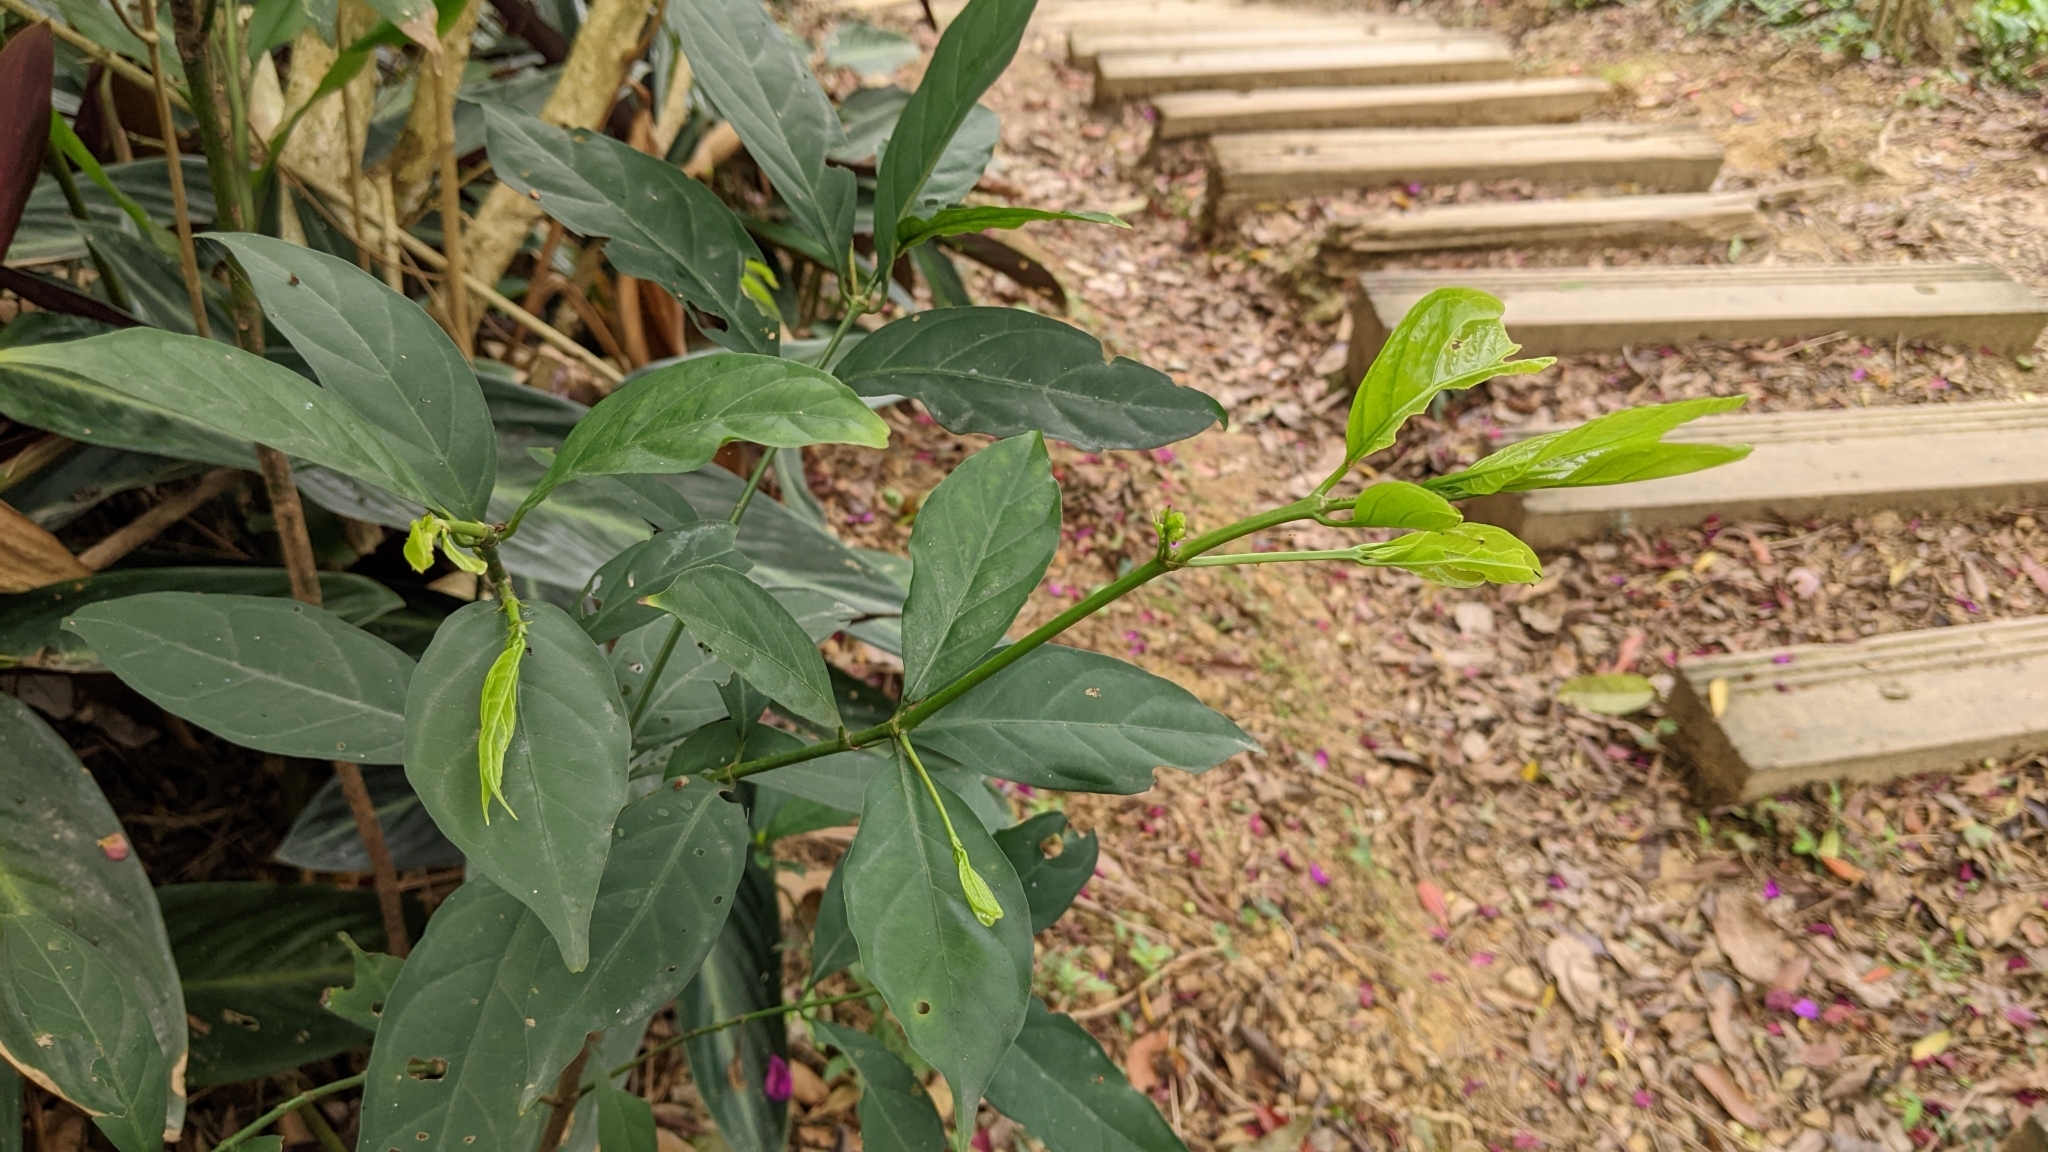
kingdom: Plantae
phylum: Tracheophyta
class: Magnoliopsida
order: Gentianales
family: Rubiaceae
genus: Aidia
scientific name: Aidia canthioides
